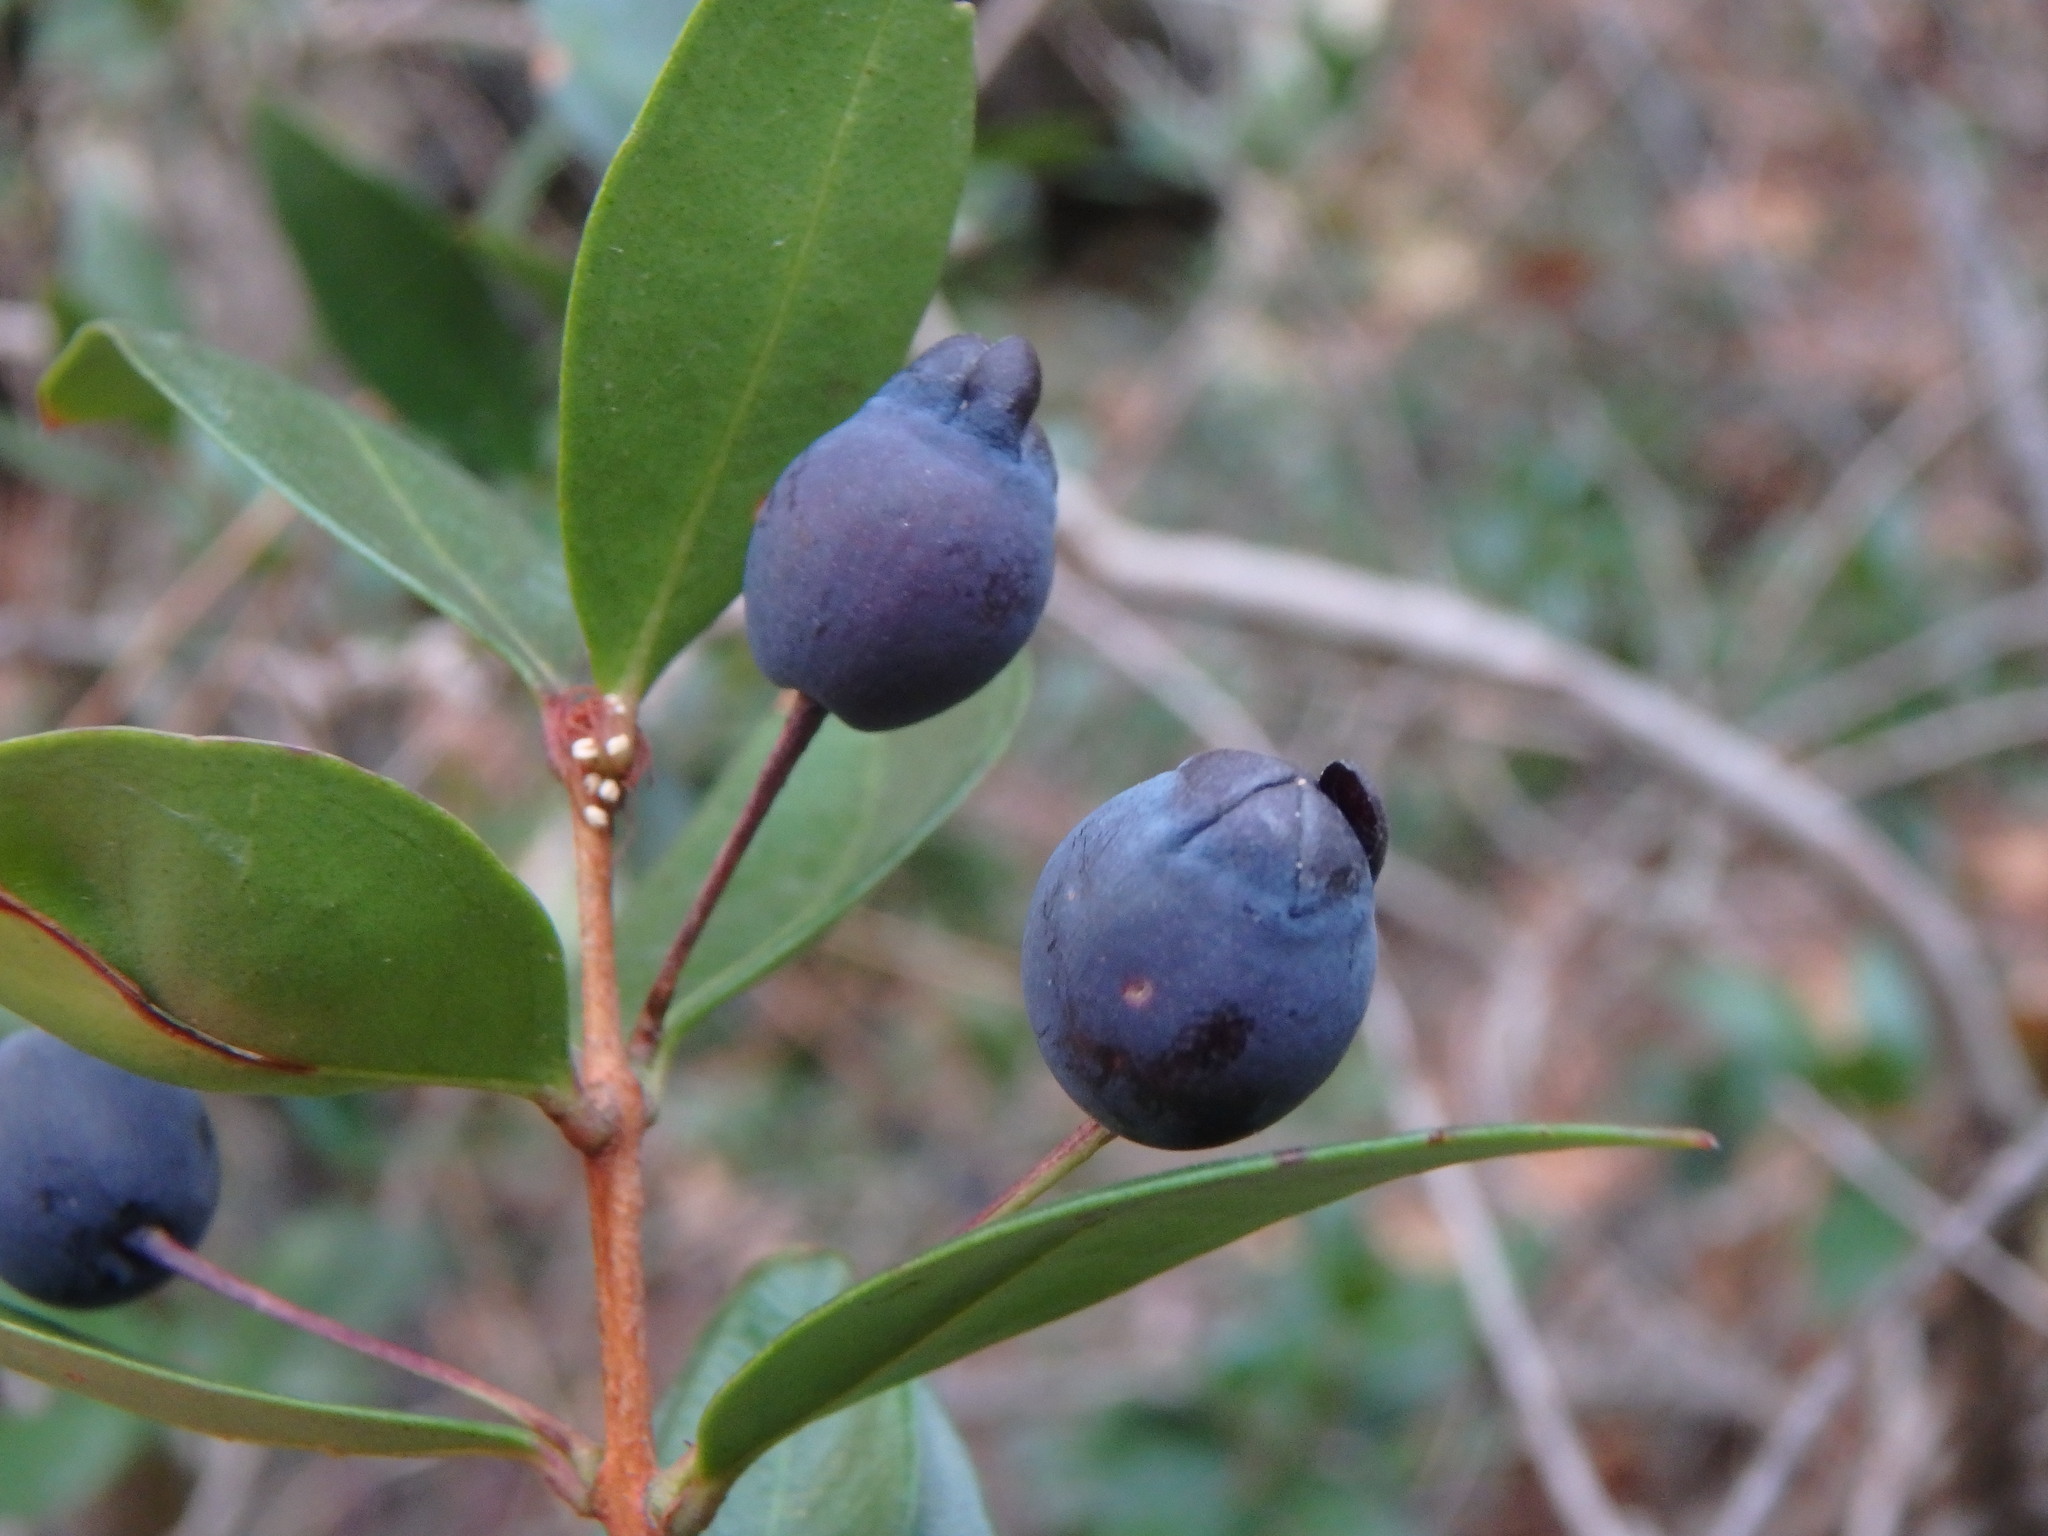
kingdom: Plantae
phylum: Tracheophyta
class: Magnoliopsida
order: Myrtales
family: Myrtaceae
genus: Myrtus
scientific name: Myrtus communis
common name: Myrtle
